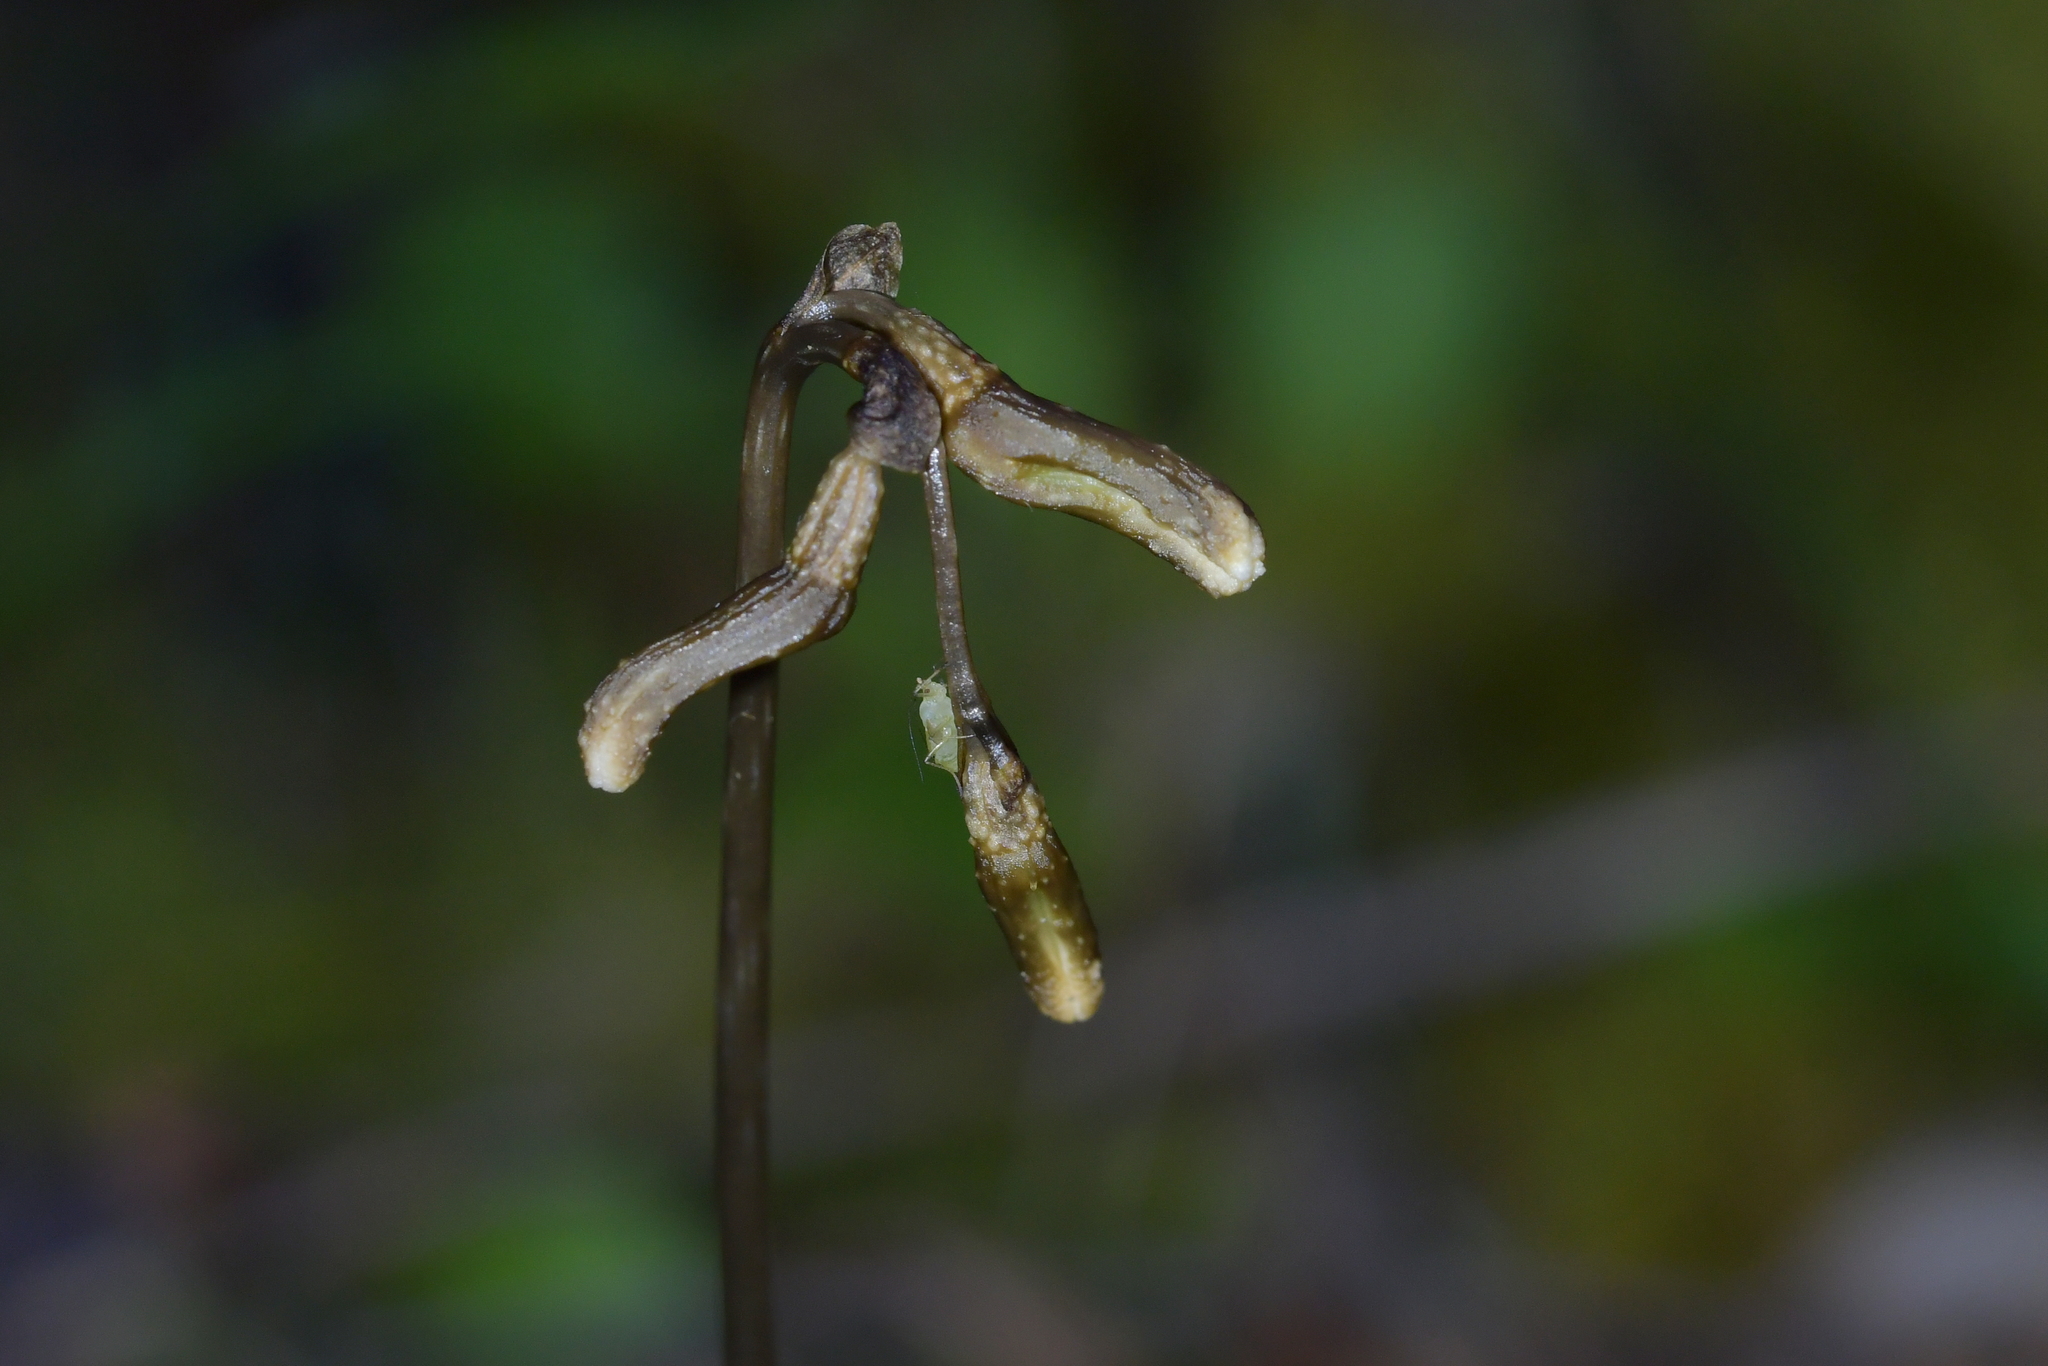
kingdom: Plantae
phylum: Tracheophyta
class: Liliopsida
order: Asparagales
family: Orchidaceae
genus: Gastrodia
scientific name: Gastrodia minor
